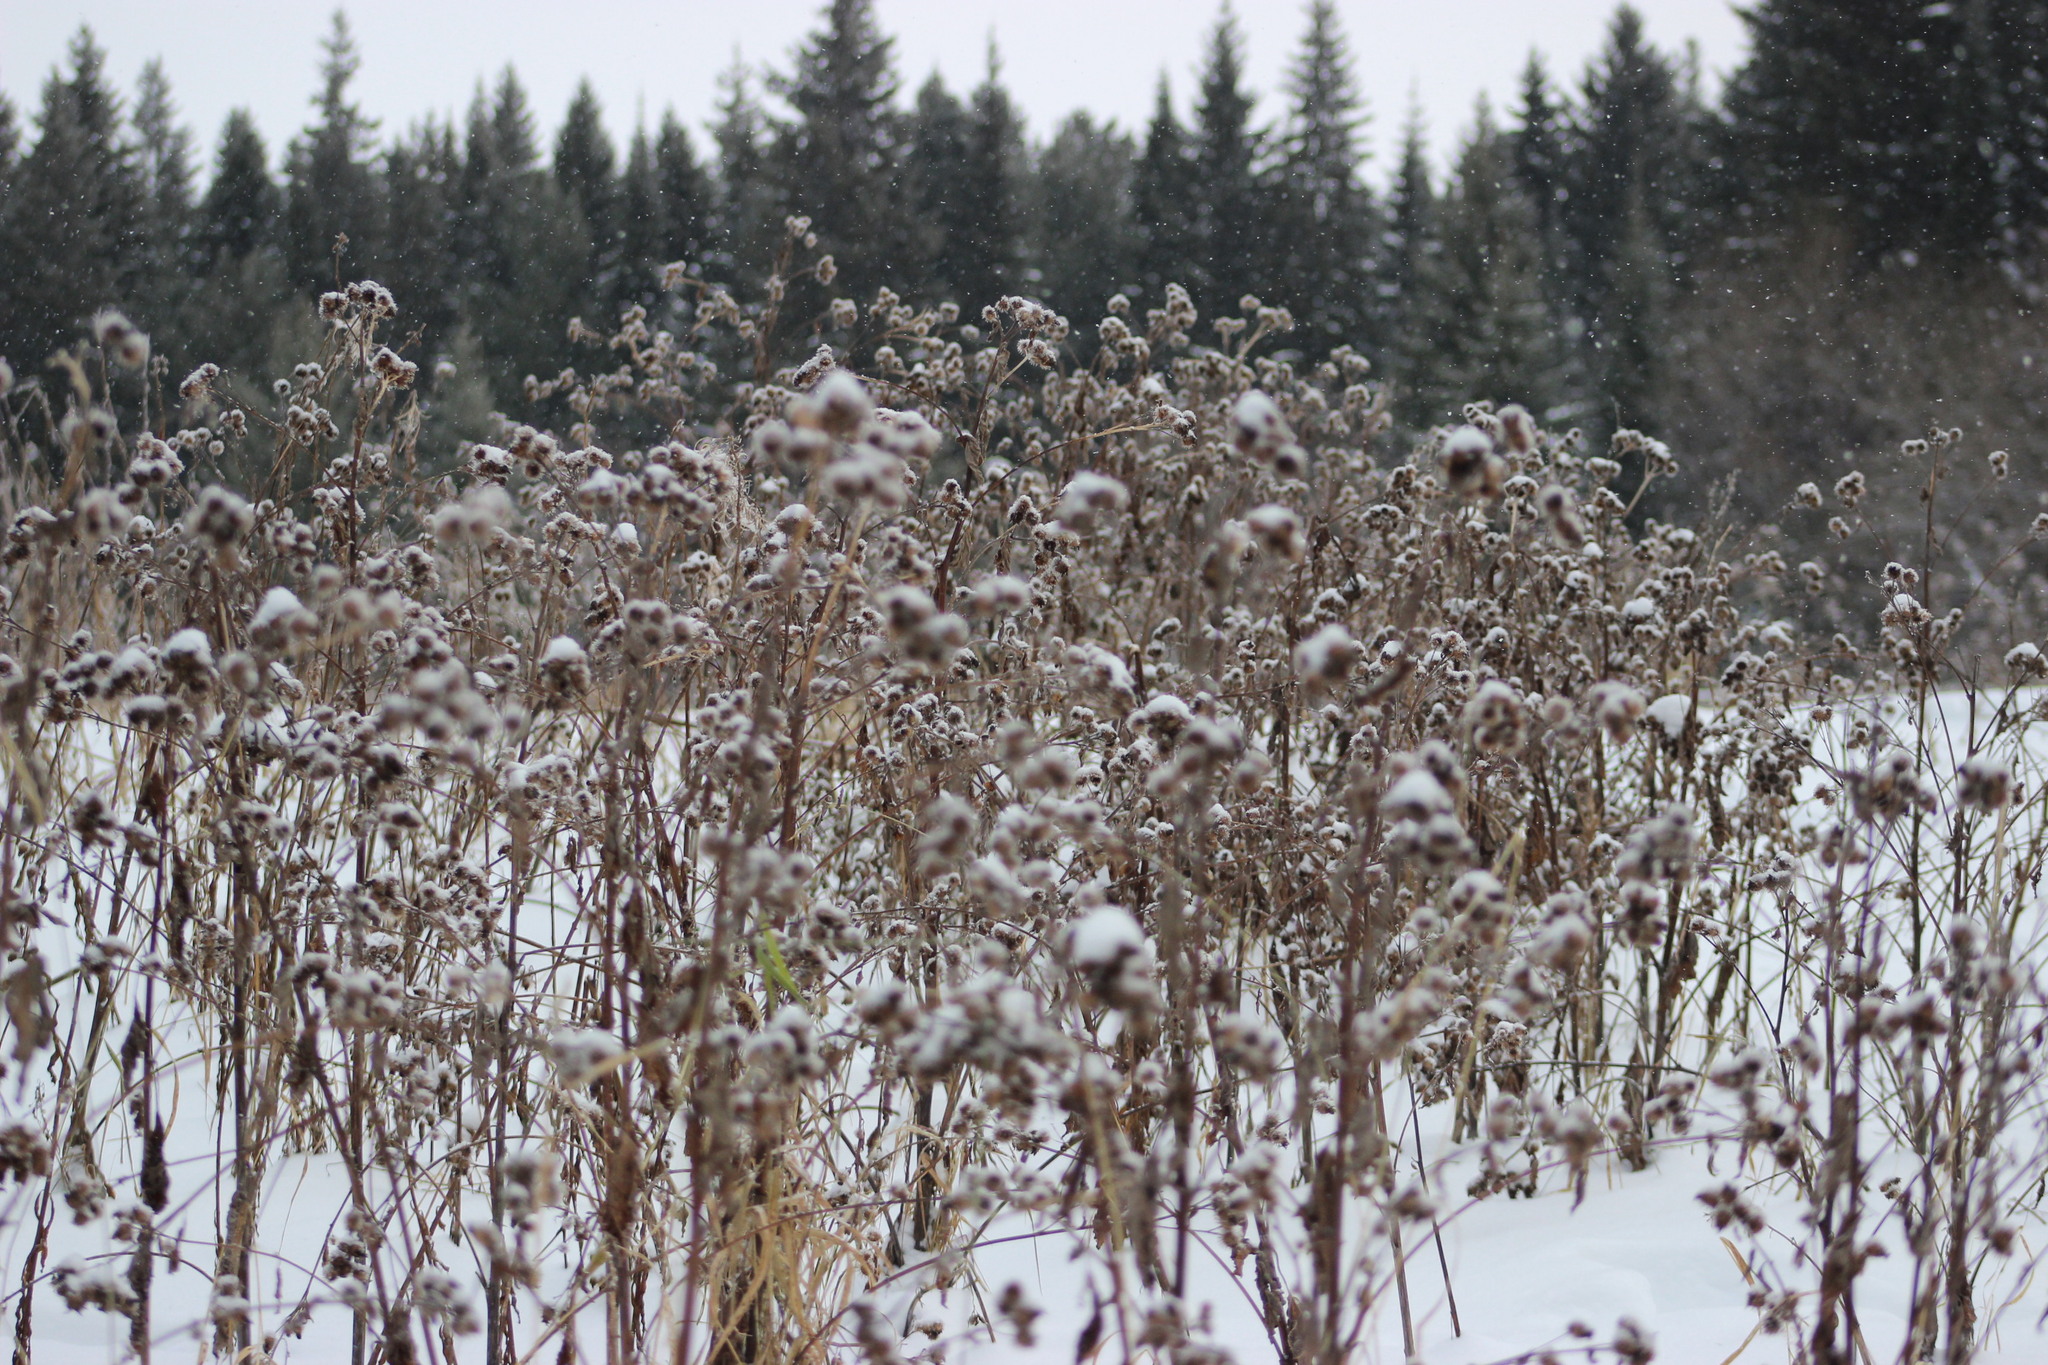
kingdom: Plantae
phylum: Tracheophyta
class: Magnoliopsida
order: Asterales
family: Asteraceae
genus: Arctium
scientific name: Arctium tomentosum
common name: Woolly burdock
